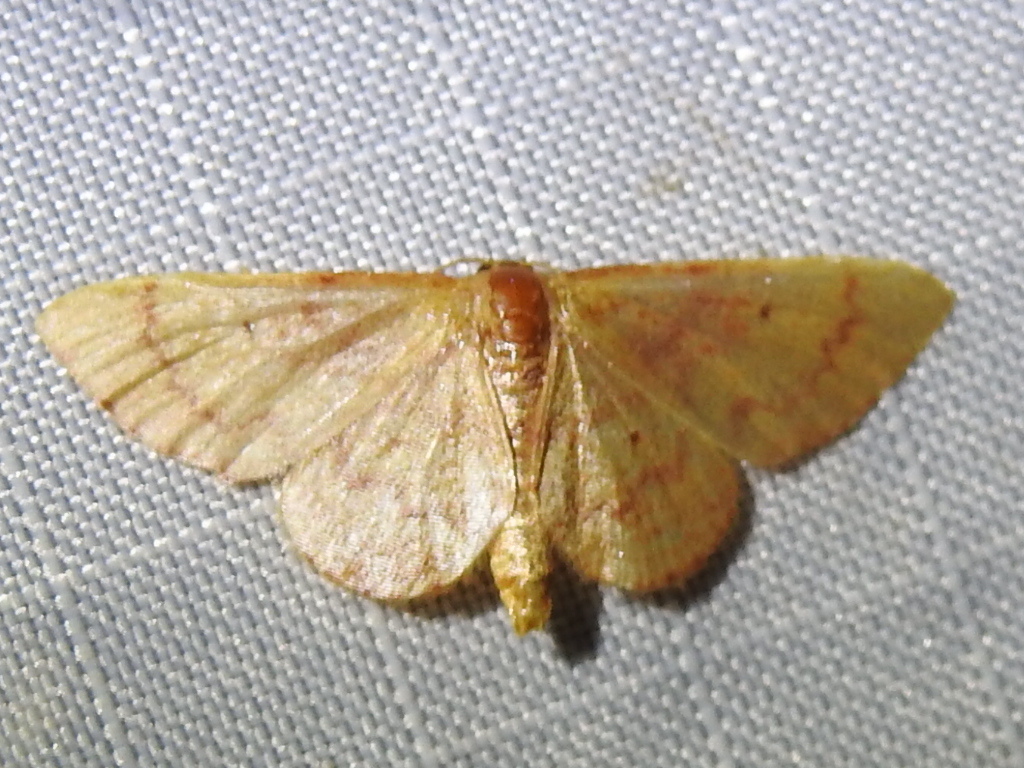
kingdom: Animalia
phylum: Arthropoda
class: Insecta
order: Lepidoptera
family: Geometridae
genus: Idaea
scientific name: Idaea demissaria
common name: Red-bordered wave
